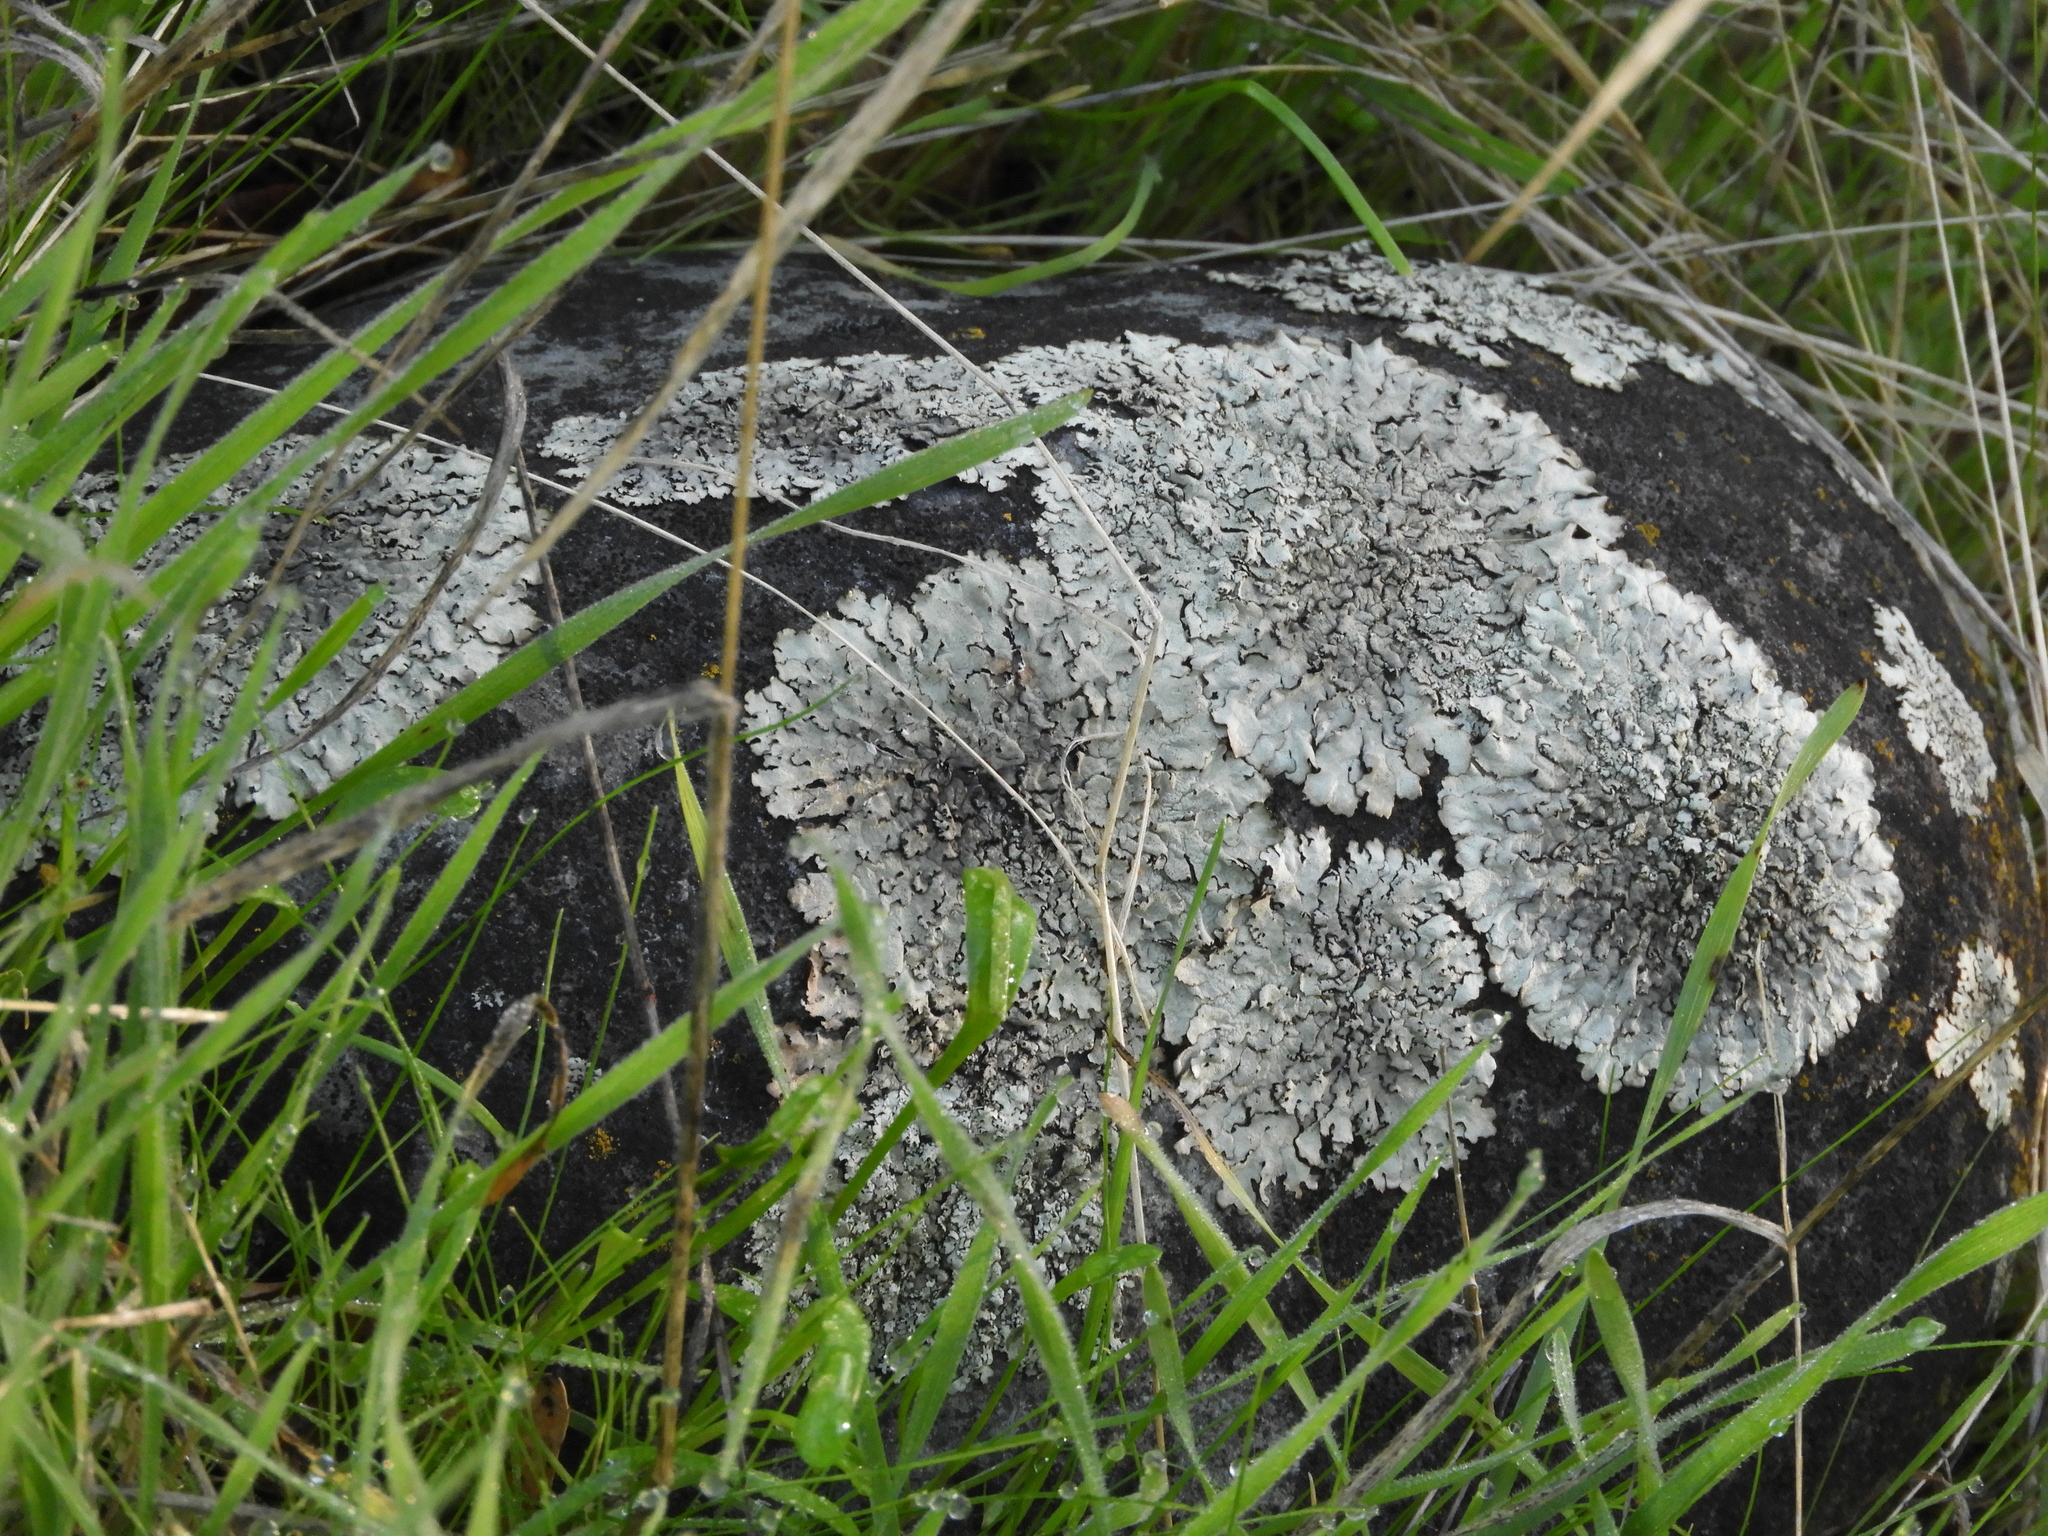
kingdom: Fungi
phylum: Ascomycota
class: Lecanoromycetes
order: Lecanorales
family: Parmeliaceae
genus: Xanthoparmelia
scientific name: Xanthoparmelia cumberlandia
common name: Cumberland rock shield
